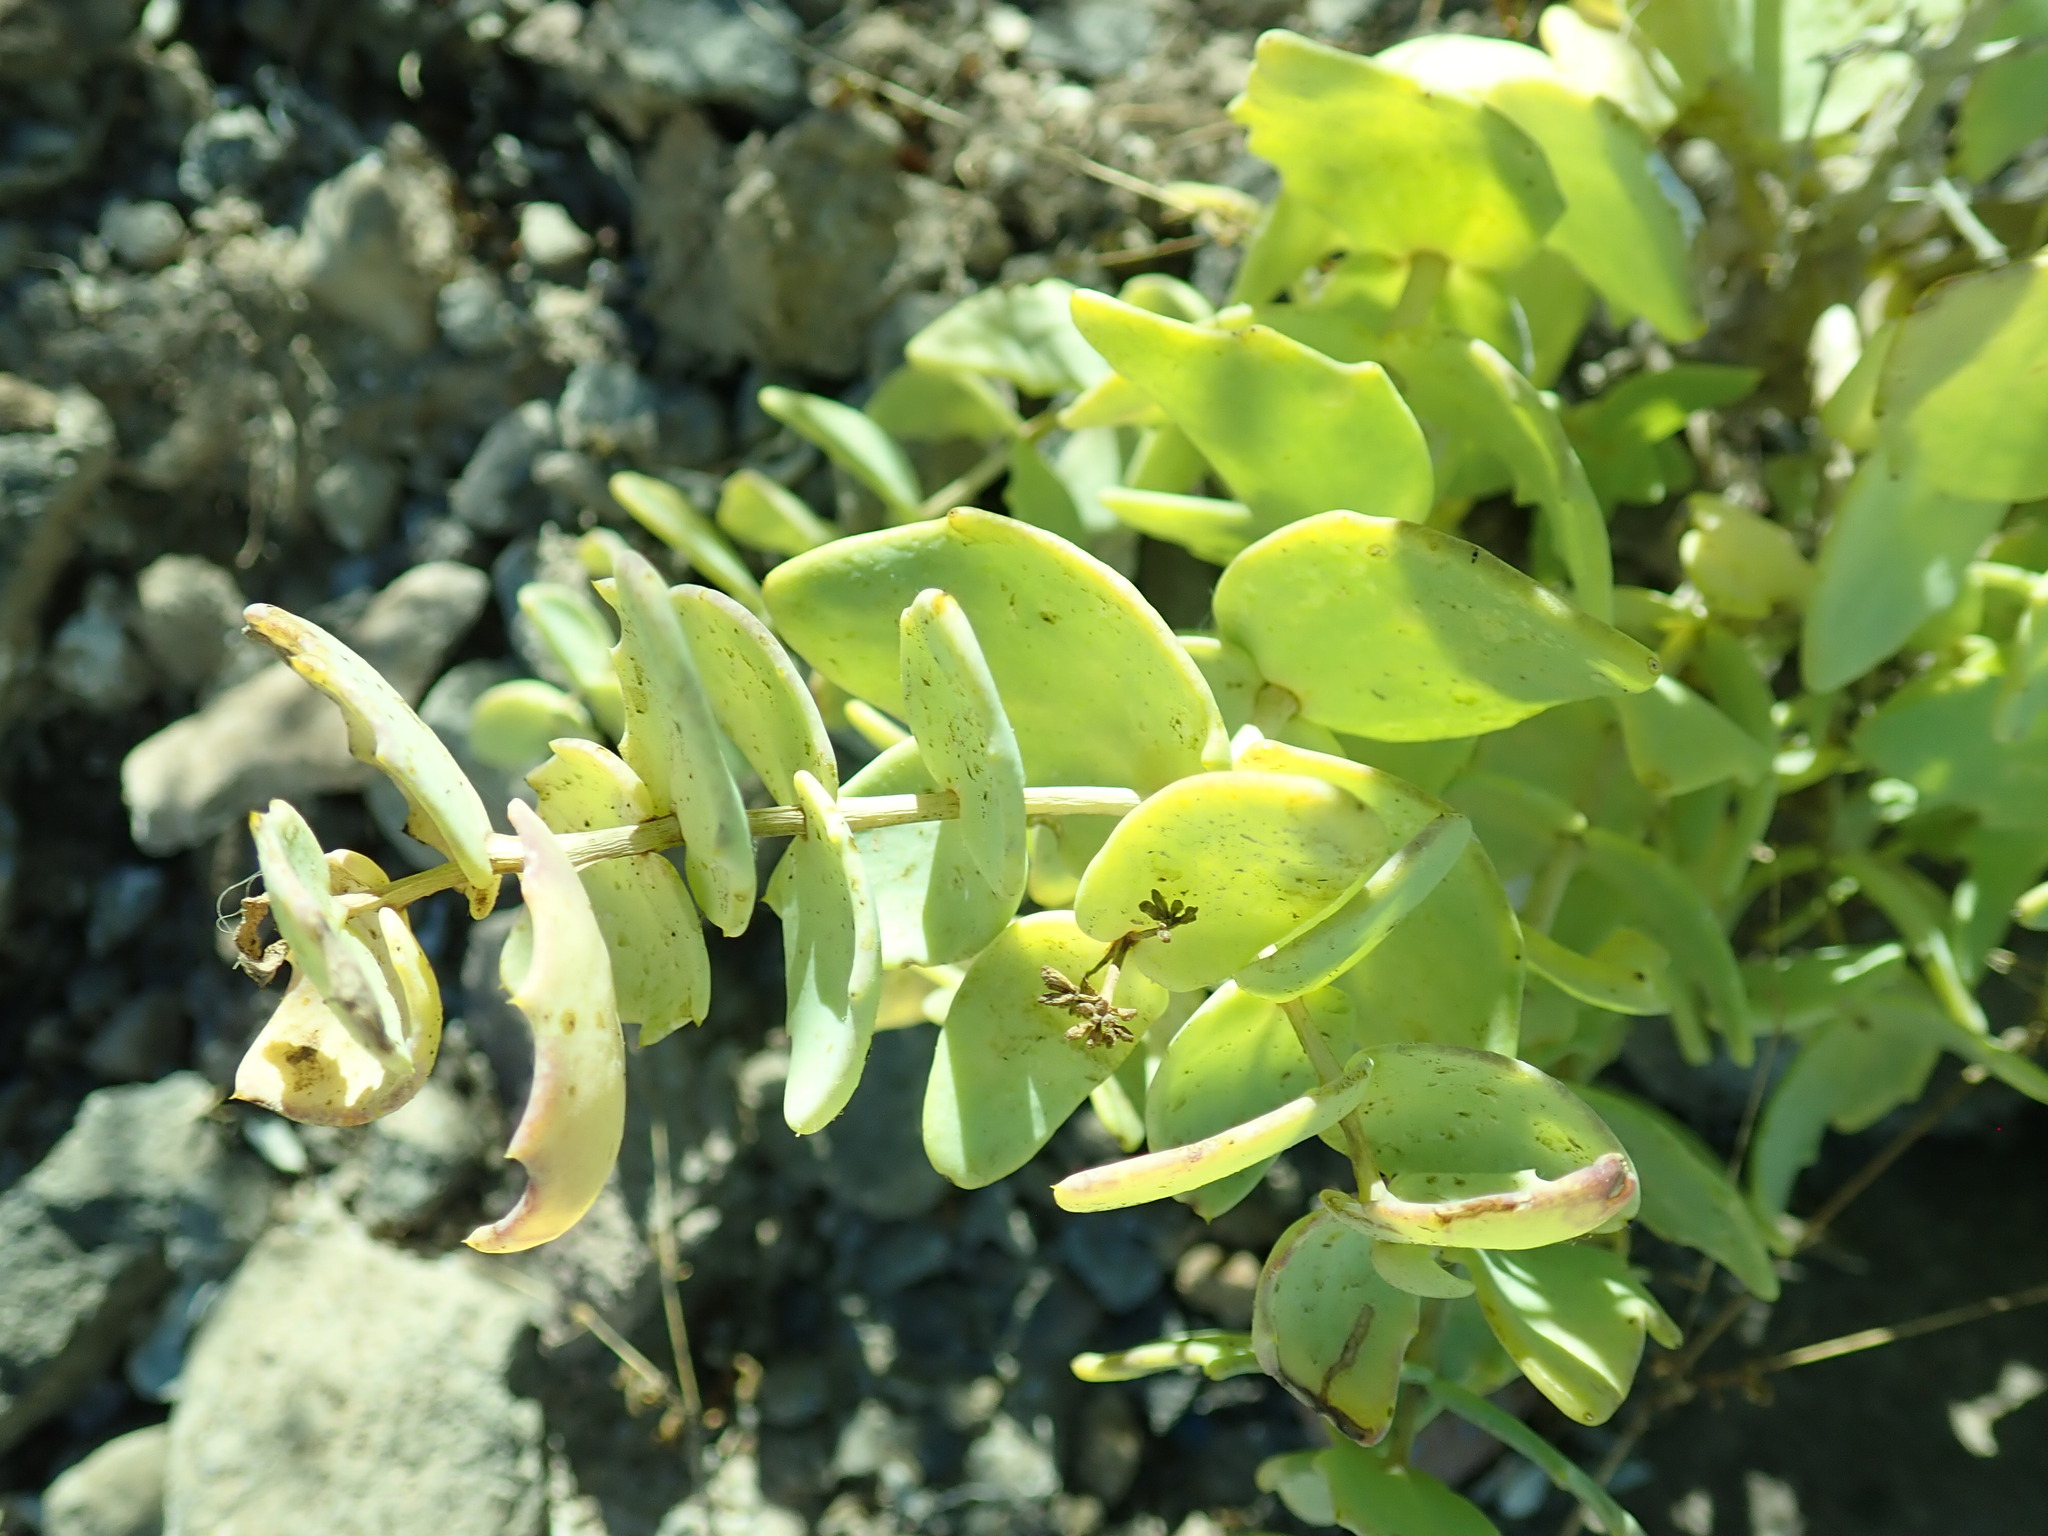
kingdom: Plantae
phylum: Tracheophyta
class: Magnoliopsida
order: Asterales
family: Asteraceae
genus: Coulterella
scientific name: Coulterella capitata
